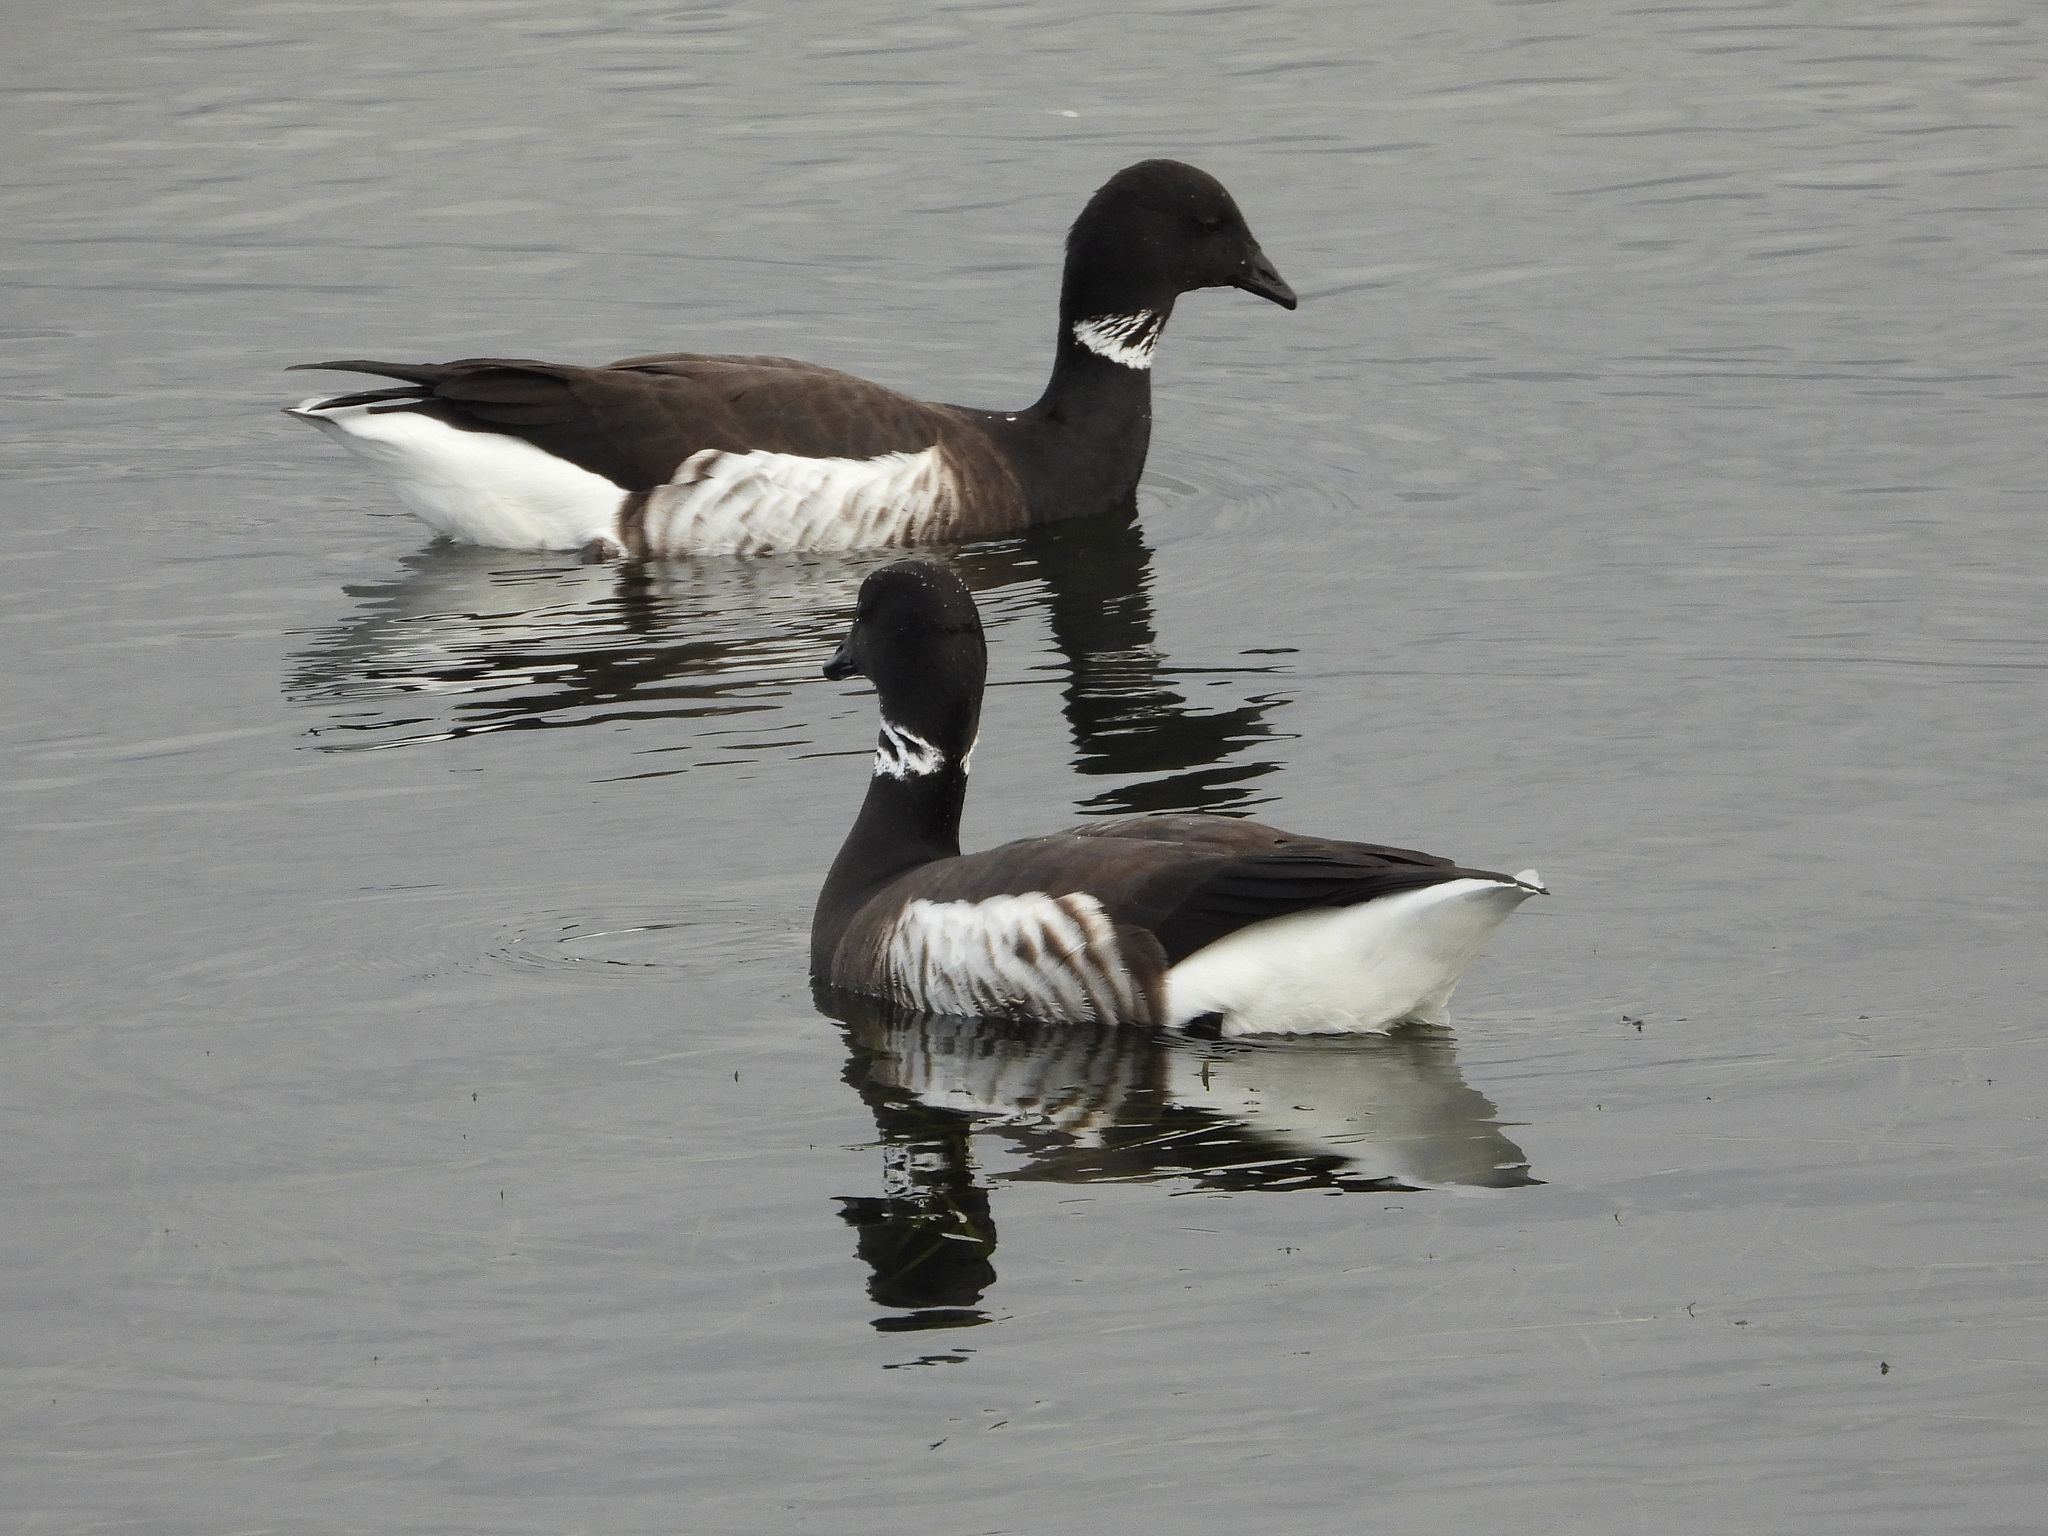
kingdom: Animalia
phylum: Chordata
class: Aves
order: Anseriformes
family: Anatidae
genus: Branta
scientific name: Branta bernicla
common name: Brant goose
